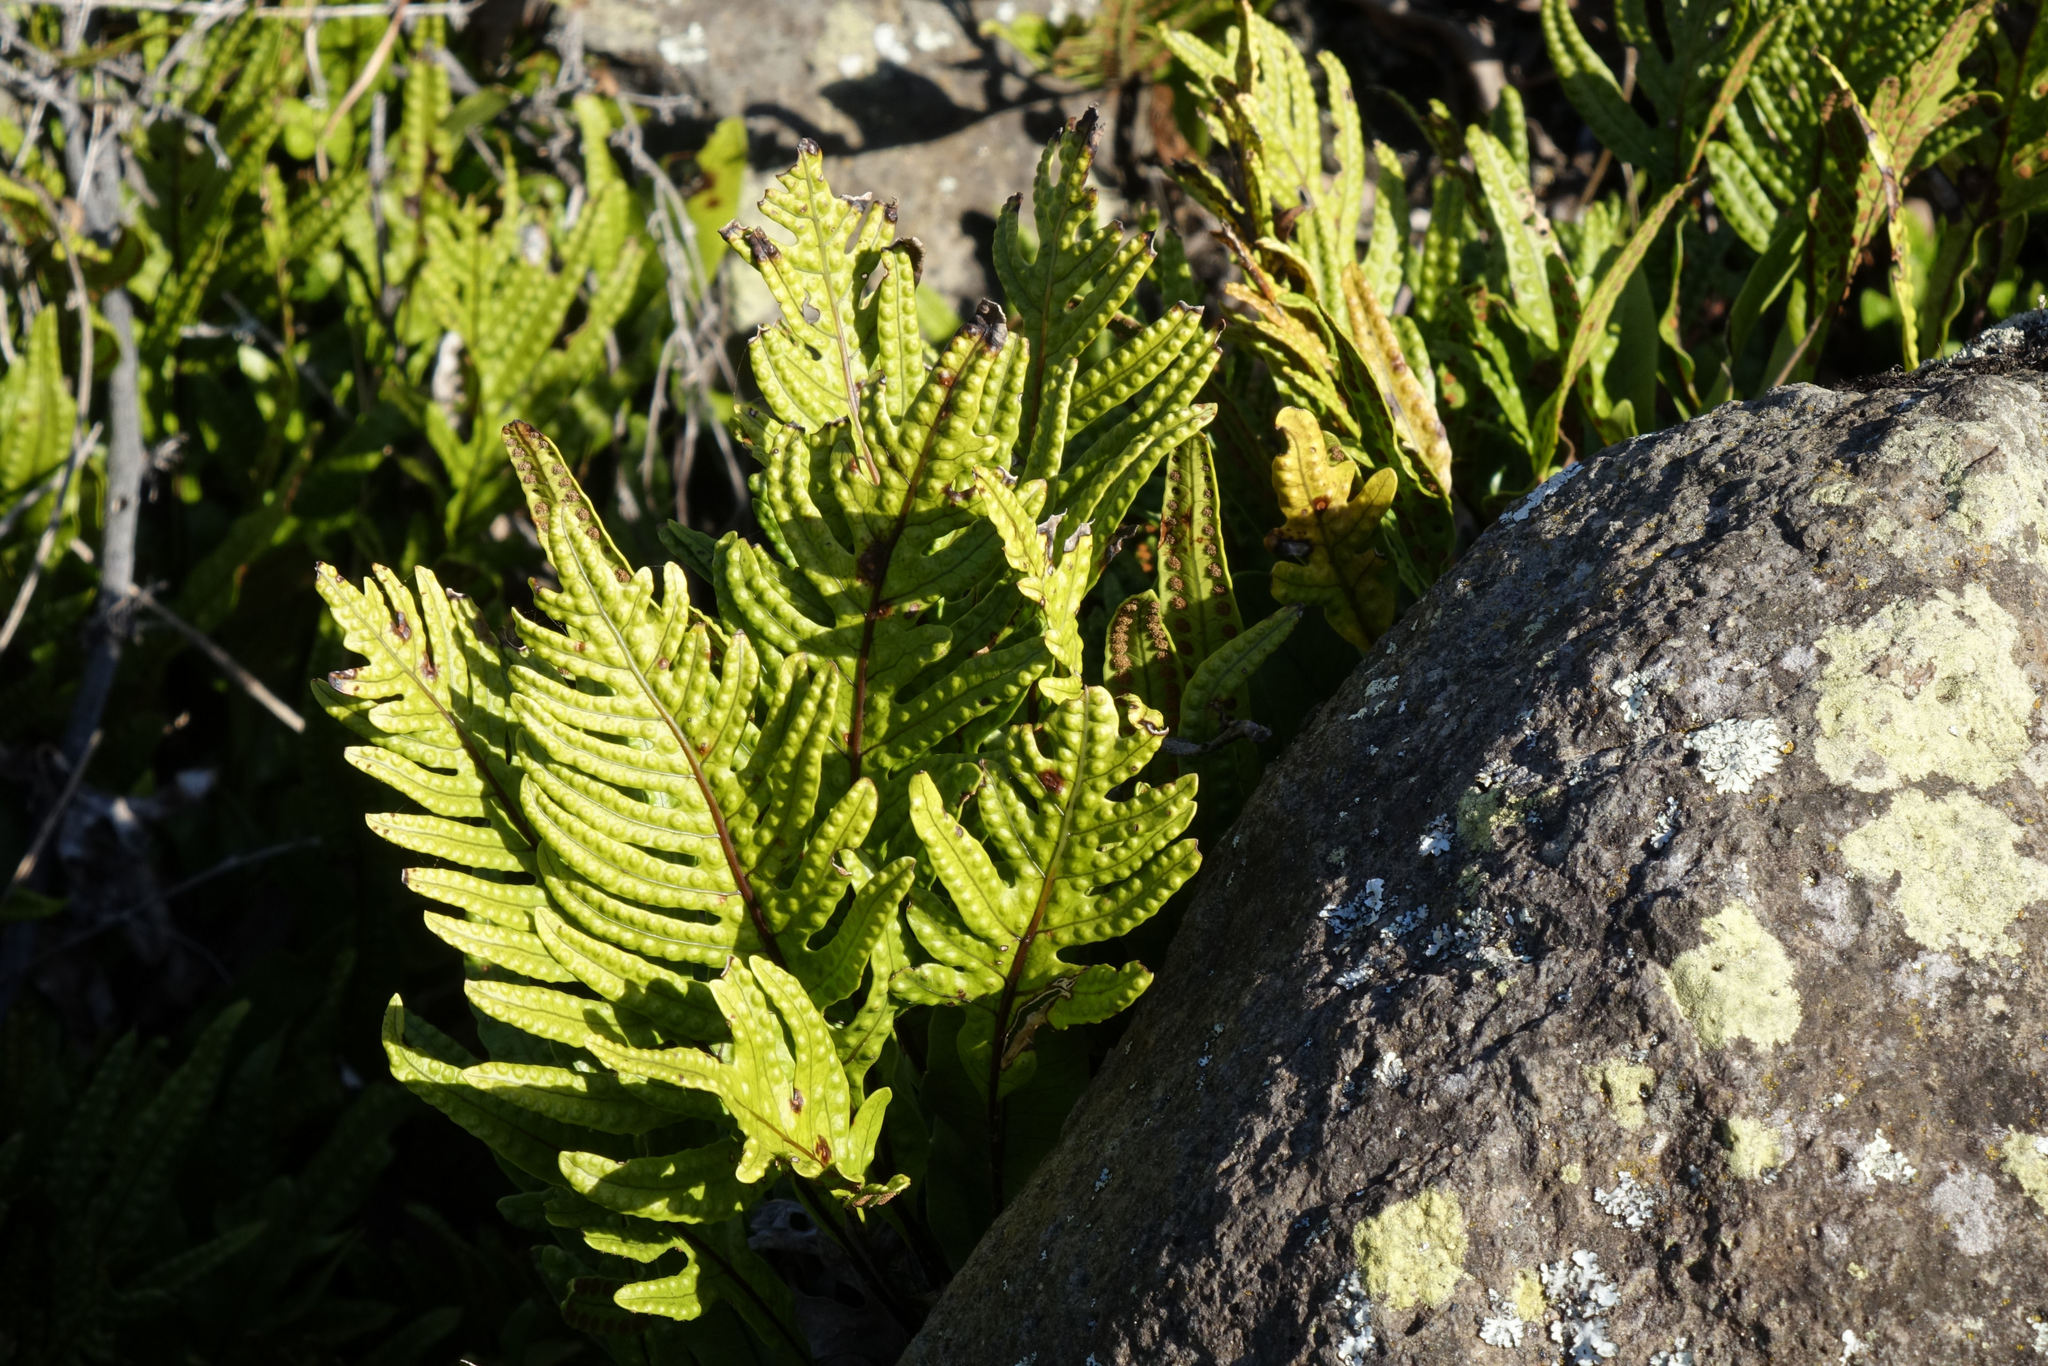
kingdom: Plantae
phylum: Tracheophyta
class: Polypodiopsida
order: Polypodiales
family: Polypodiaceae
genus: Lecanopteris
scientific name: Lecanopteris pustulata
